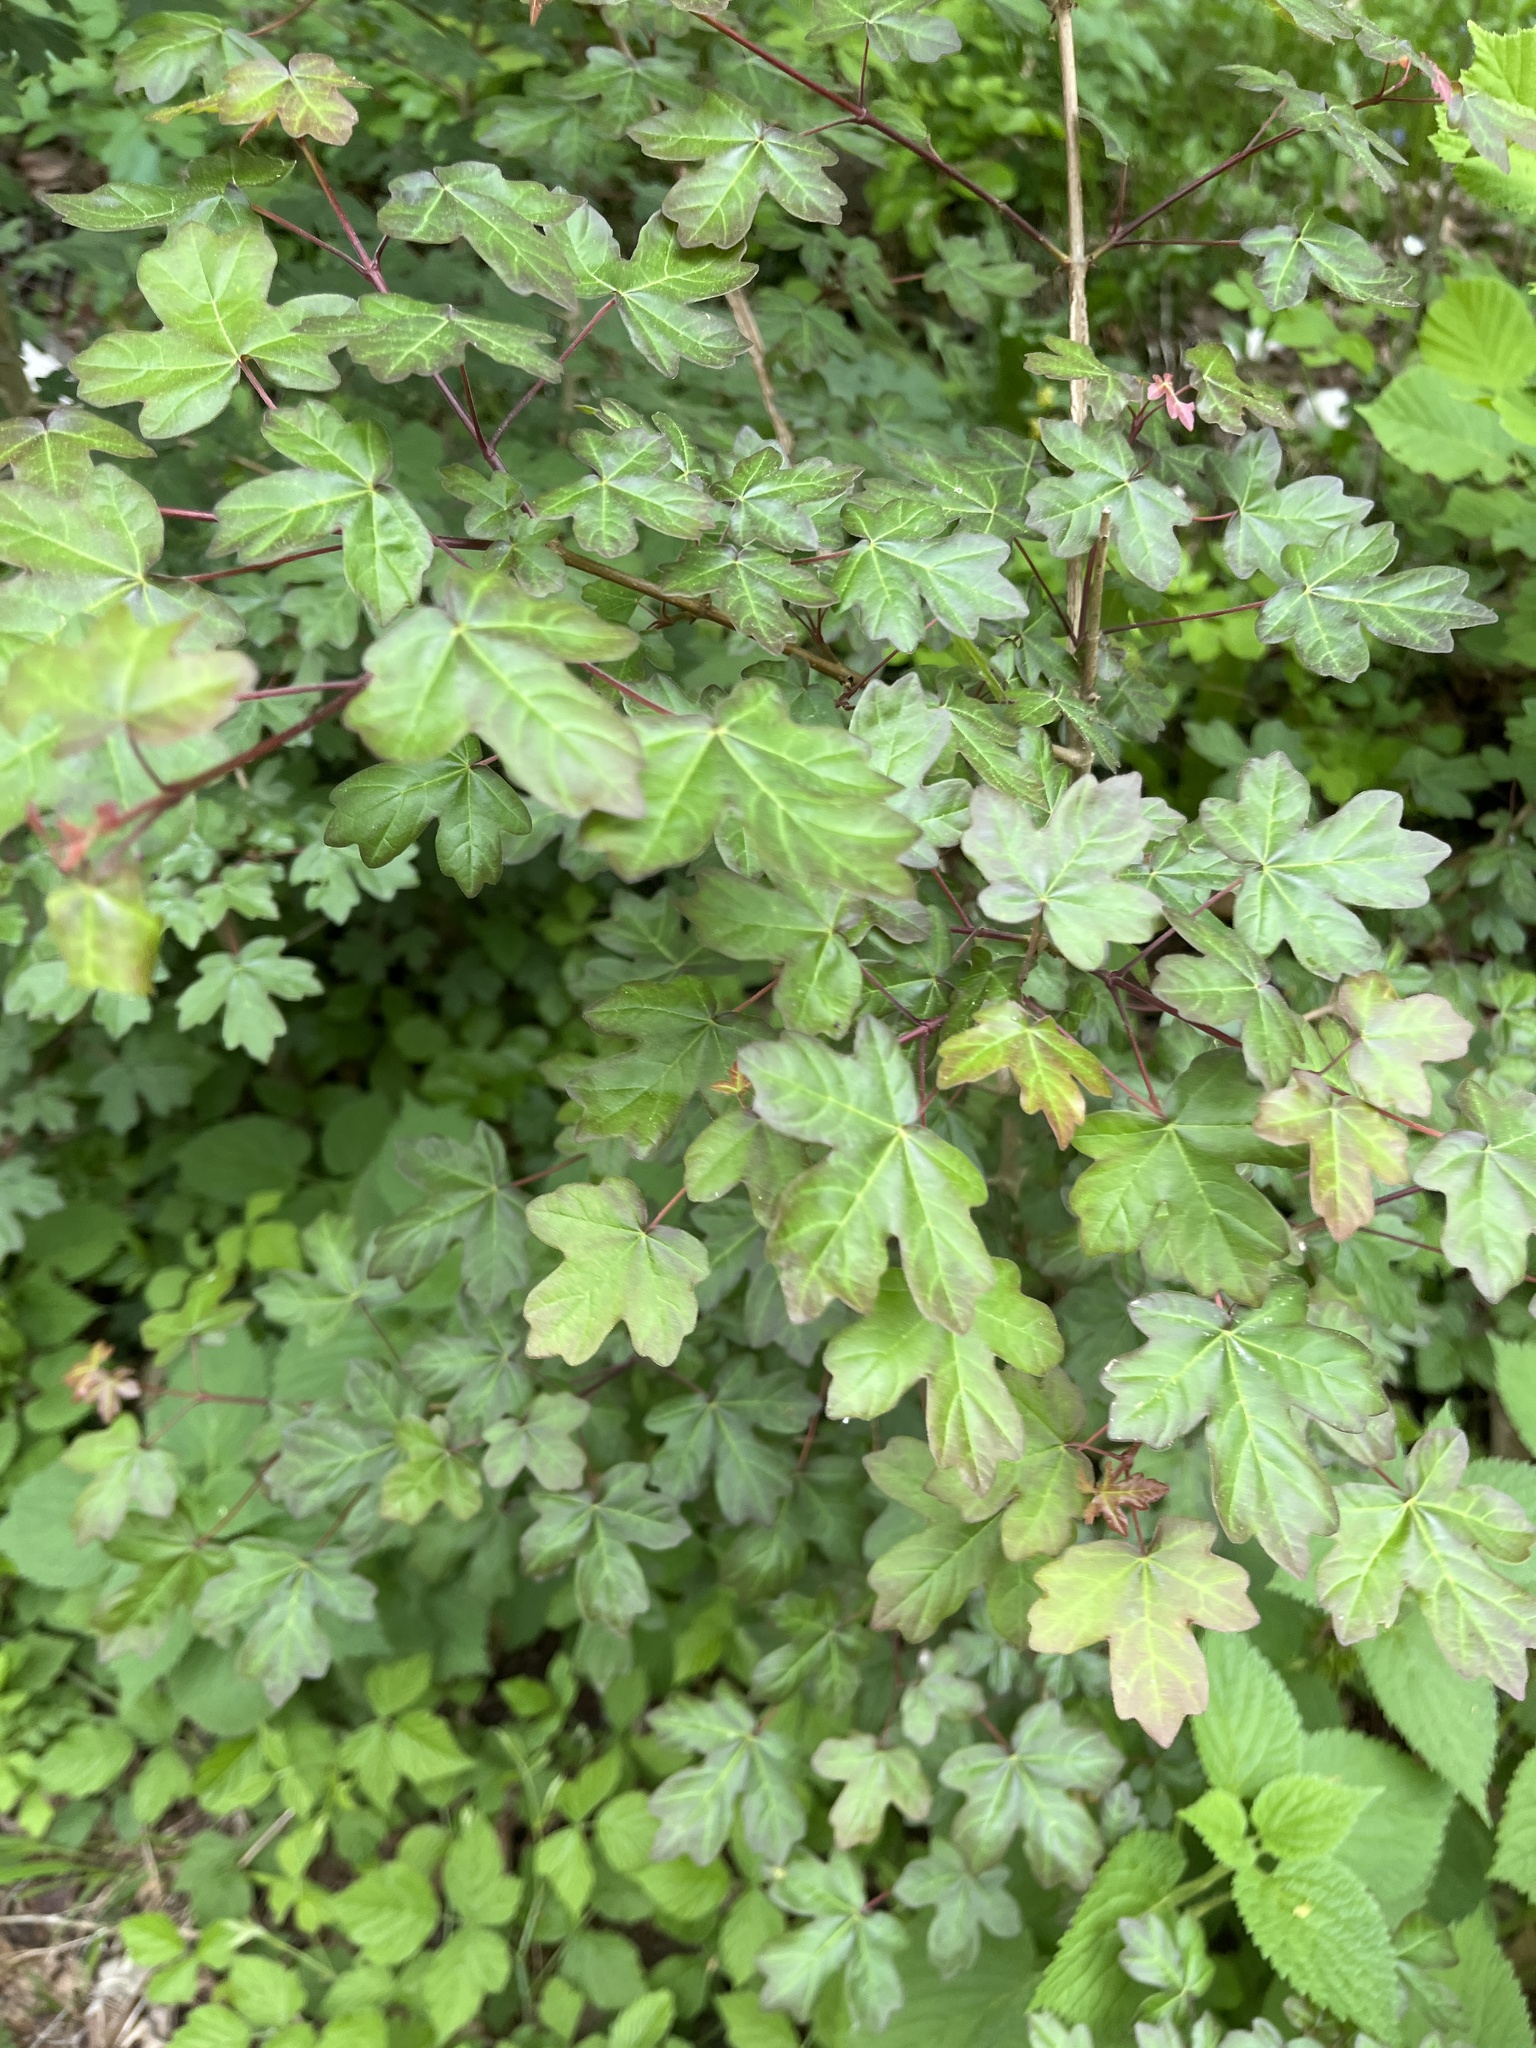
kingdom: Plantae
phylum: Tracheophyta
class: Magnoliopsida
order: Sapindales
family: Sapindaceae
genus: Acer
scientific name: Acer campestre
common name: Field maple
